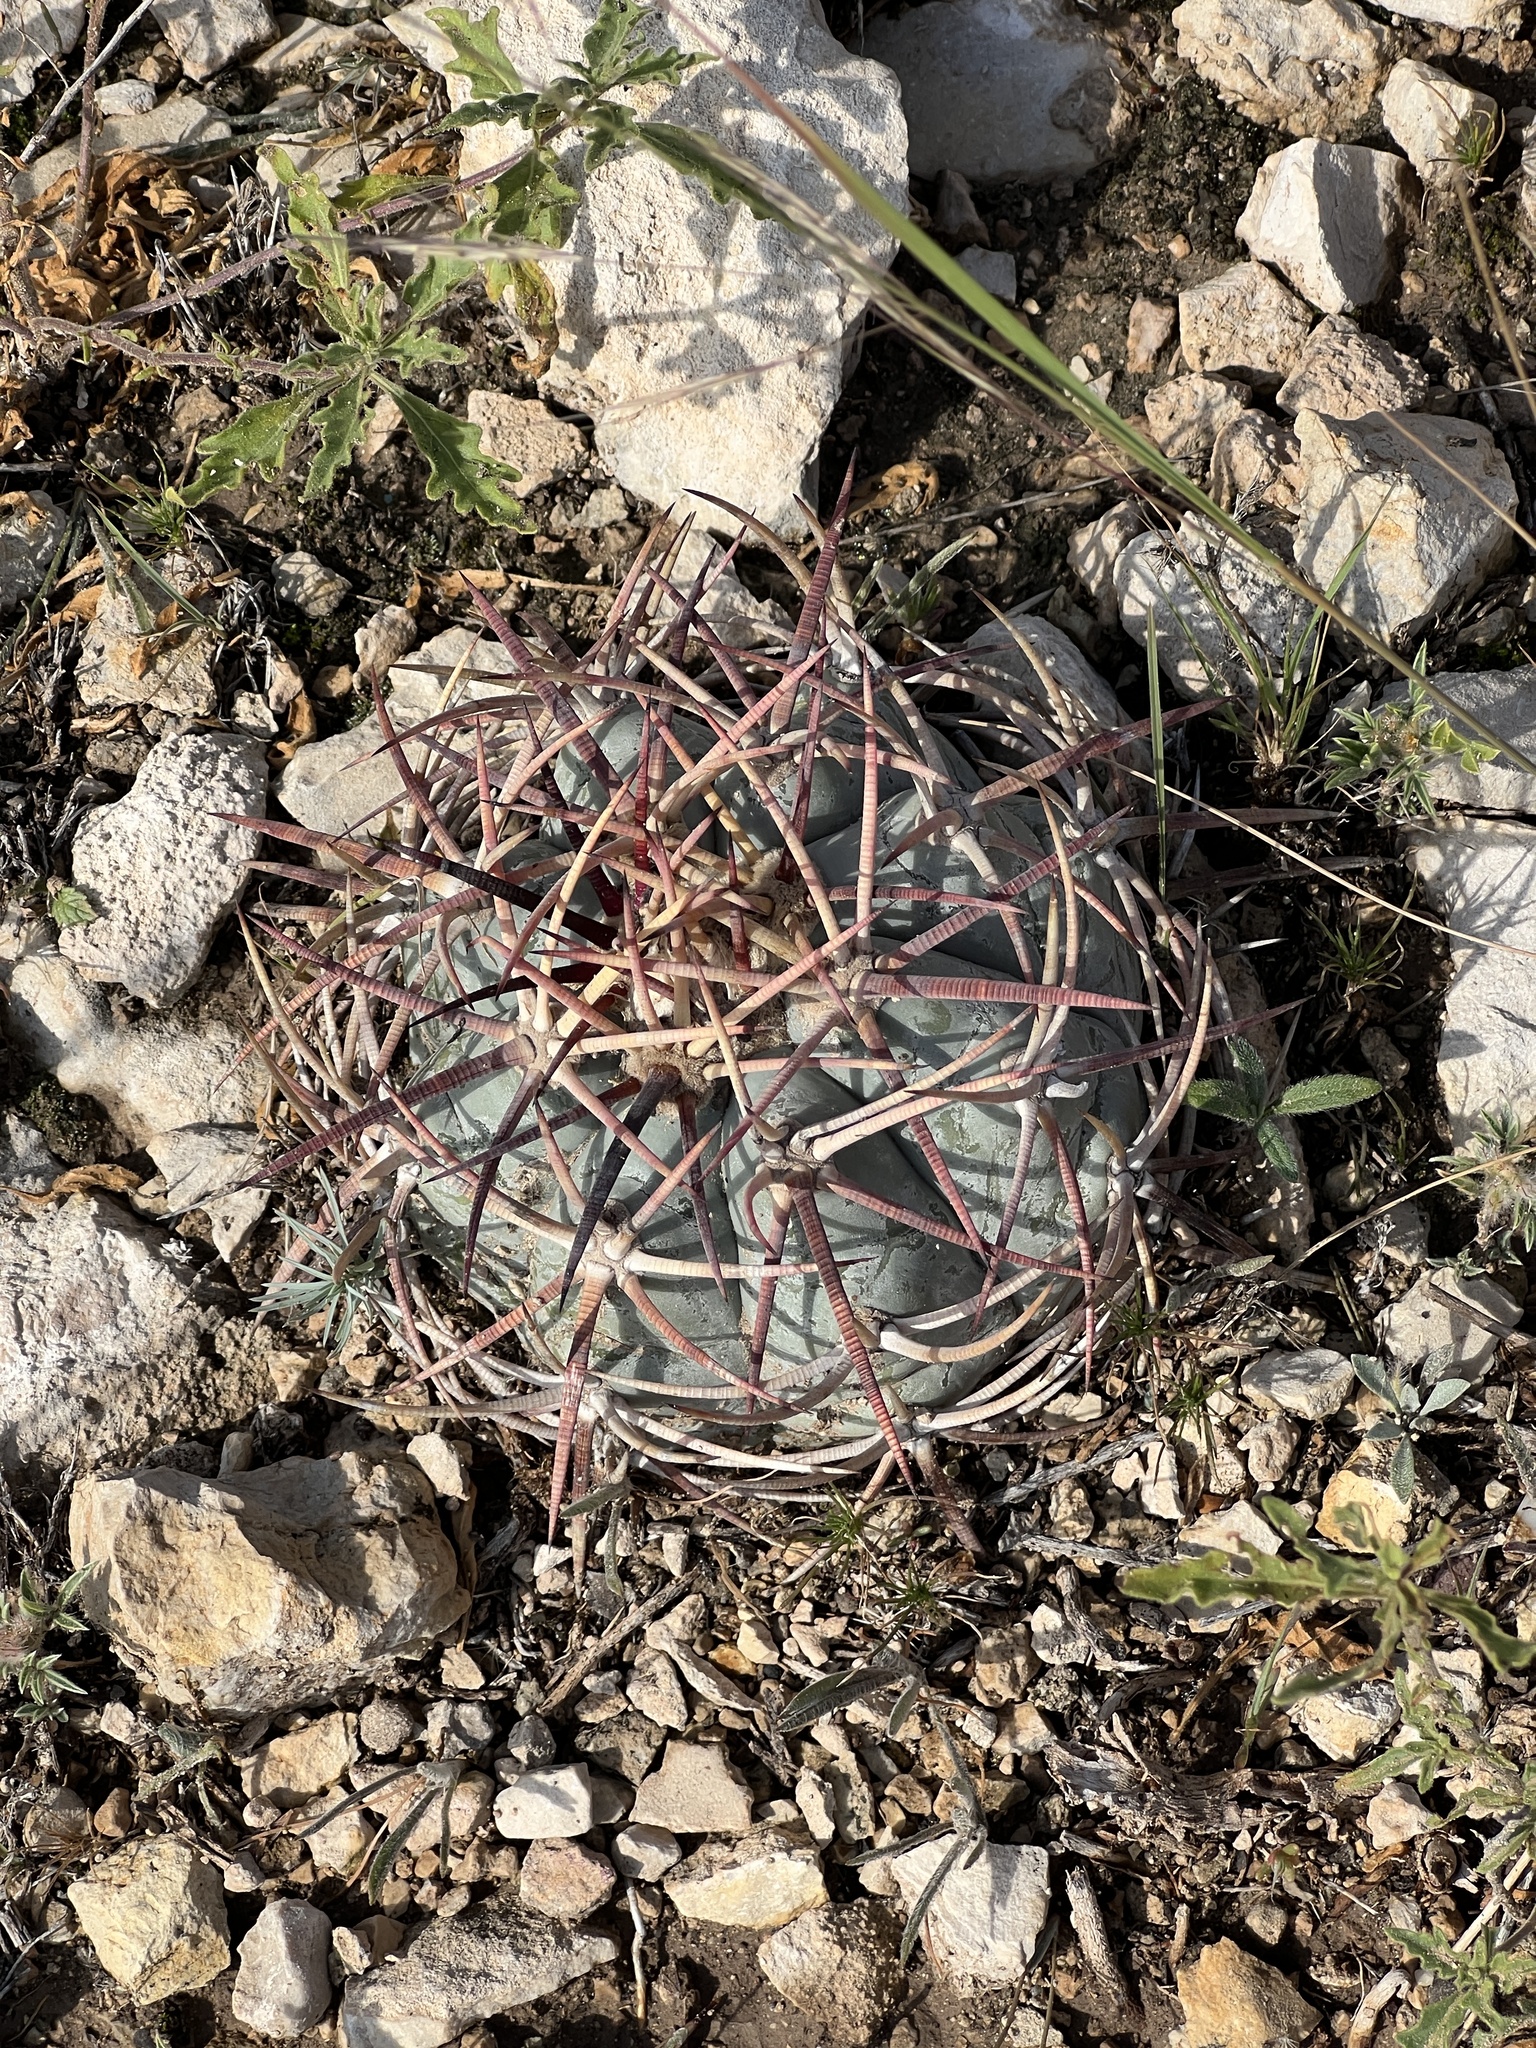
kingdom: Plantae
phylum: Tracheophyta
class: Magnoliopsida
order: Caryophyllales
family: Cactaceae
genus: Echinocactus
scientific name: Echinocactus horizonthalonius
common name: Devilshead
